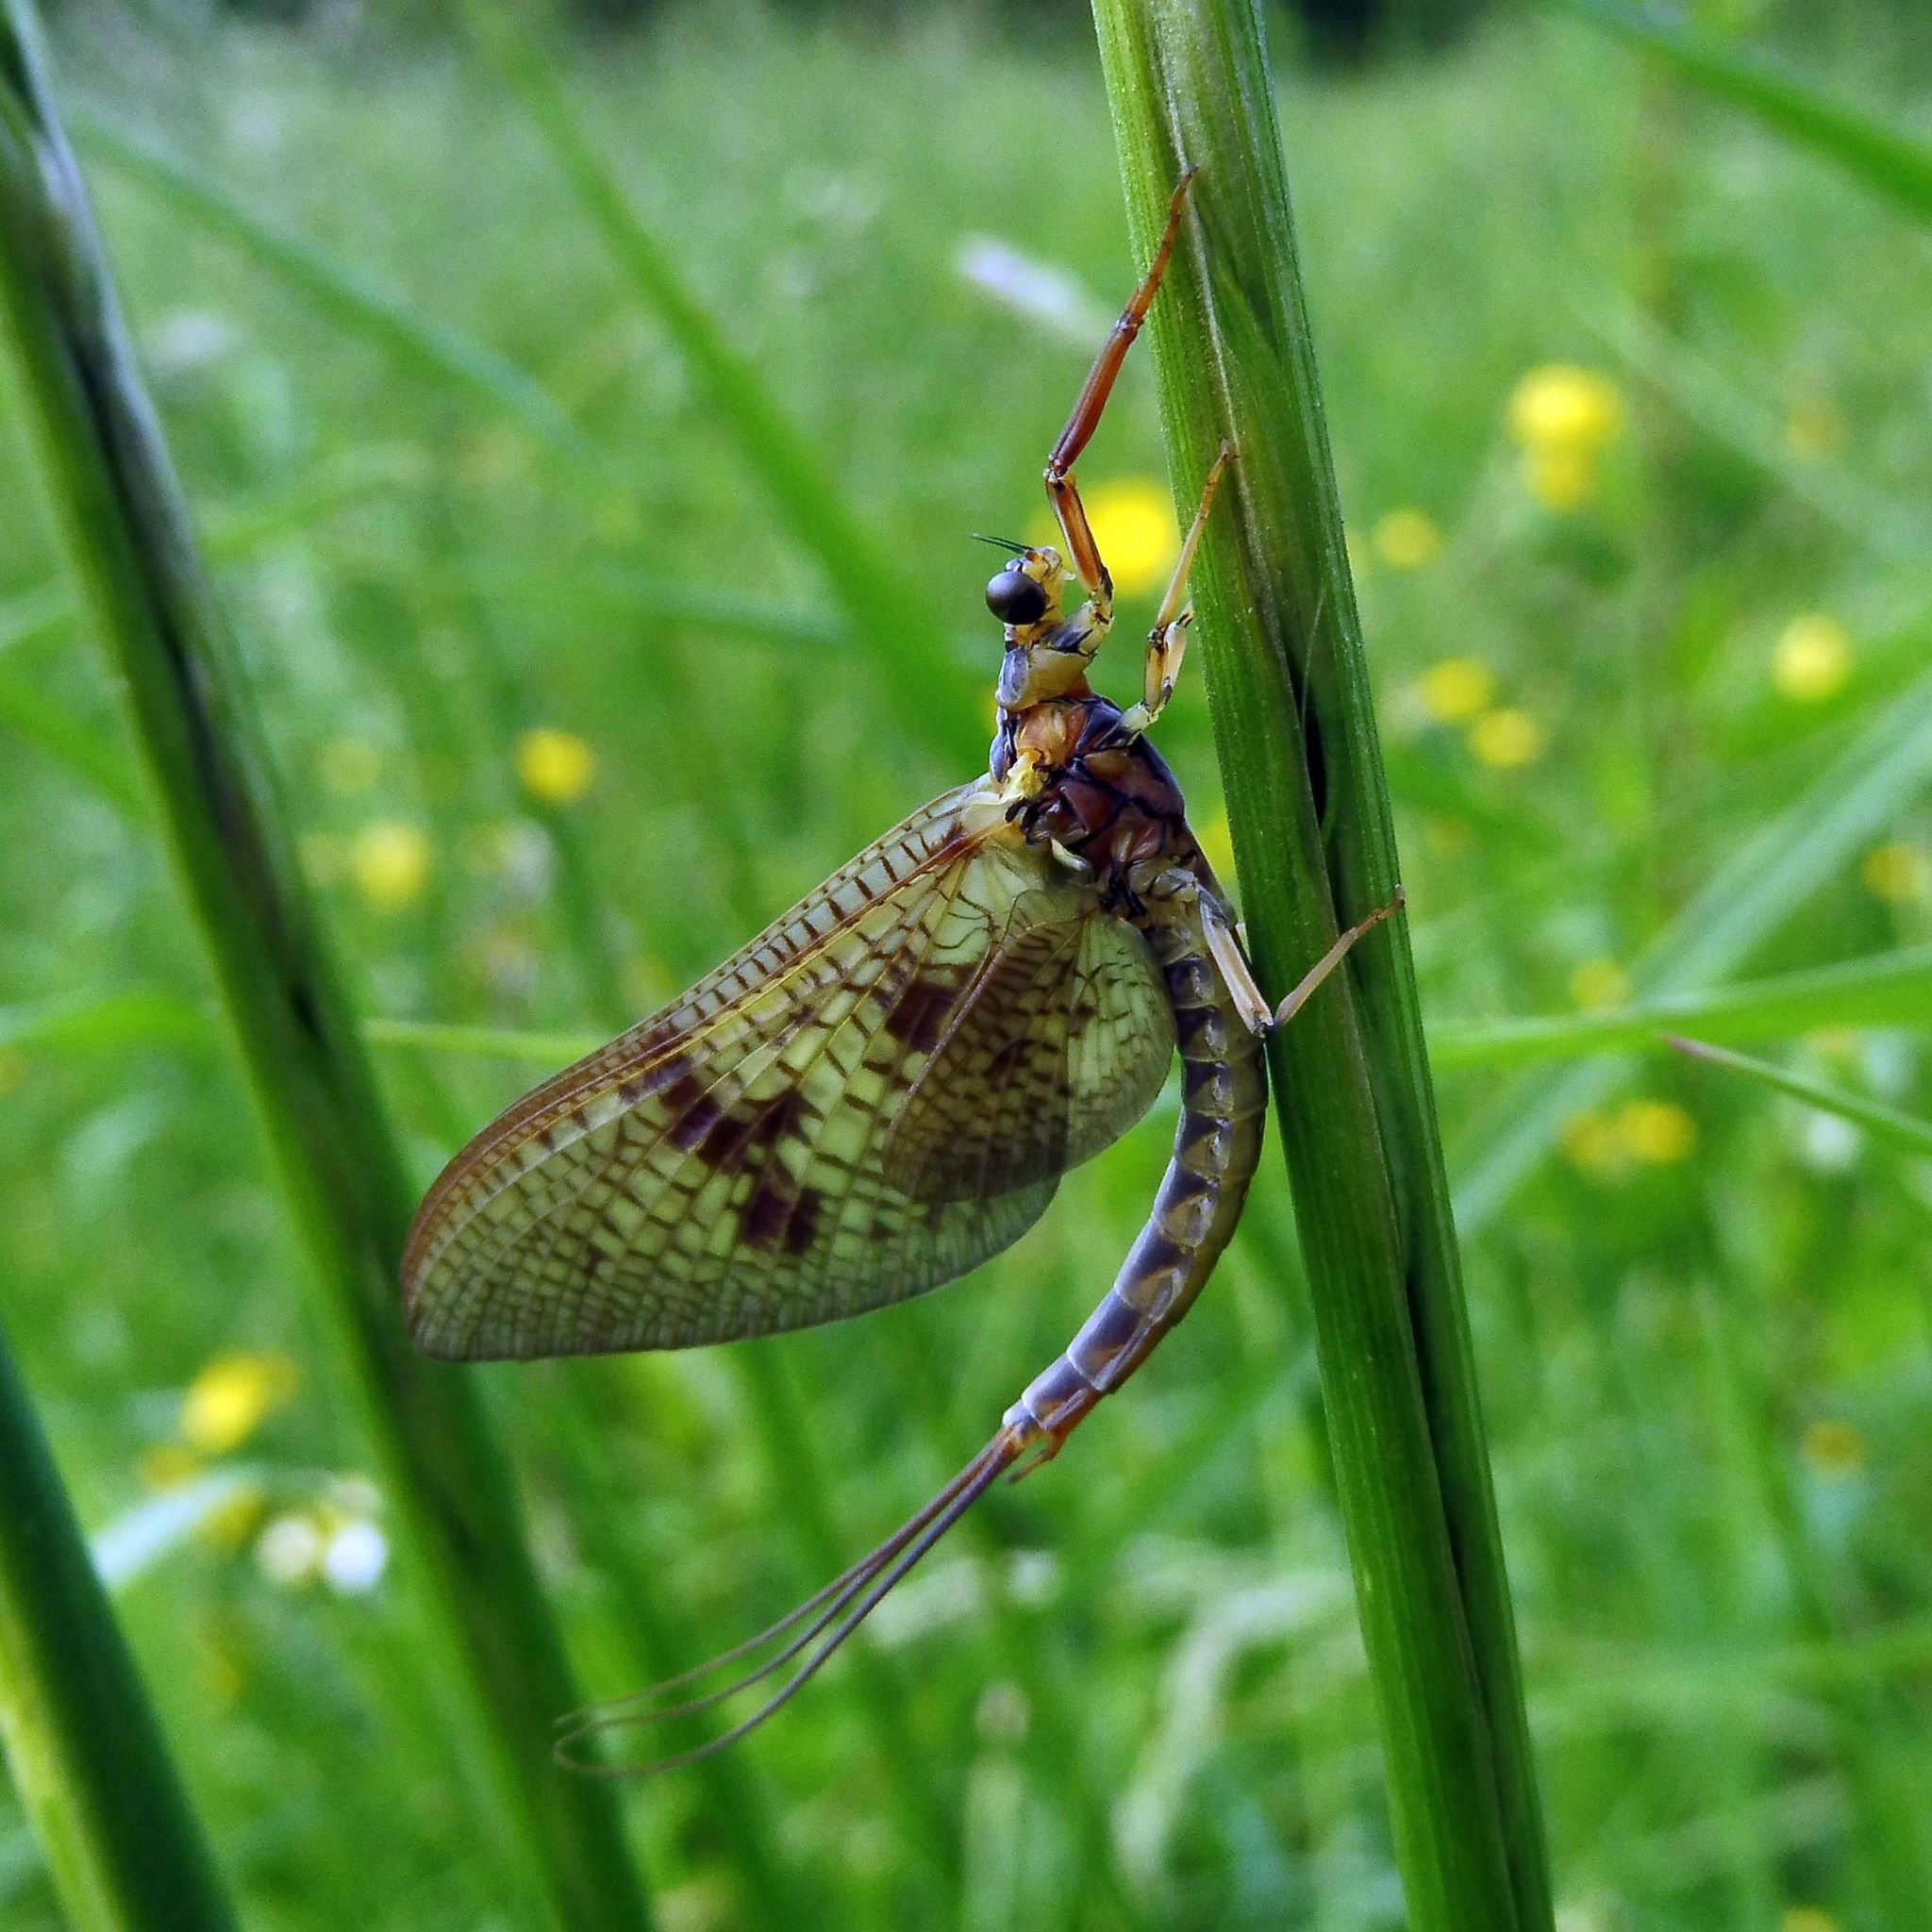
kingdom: Animalia
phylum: Arthropoda
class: Insecta
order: Ephemeroptera
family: Ephemeridae
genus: Ephemera
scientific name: Ephemera vulgata
